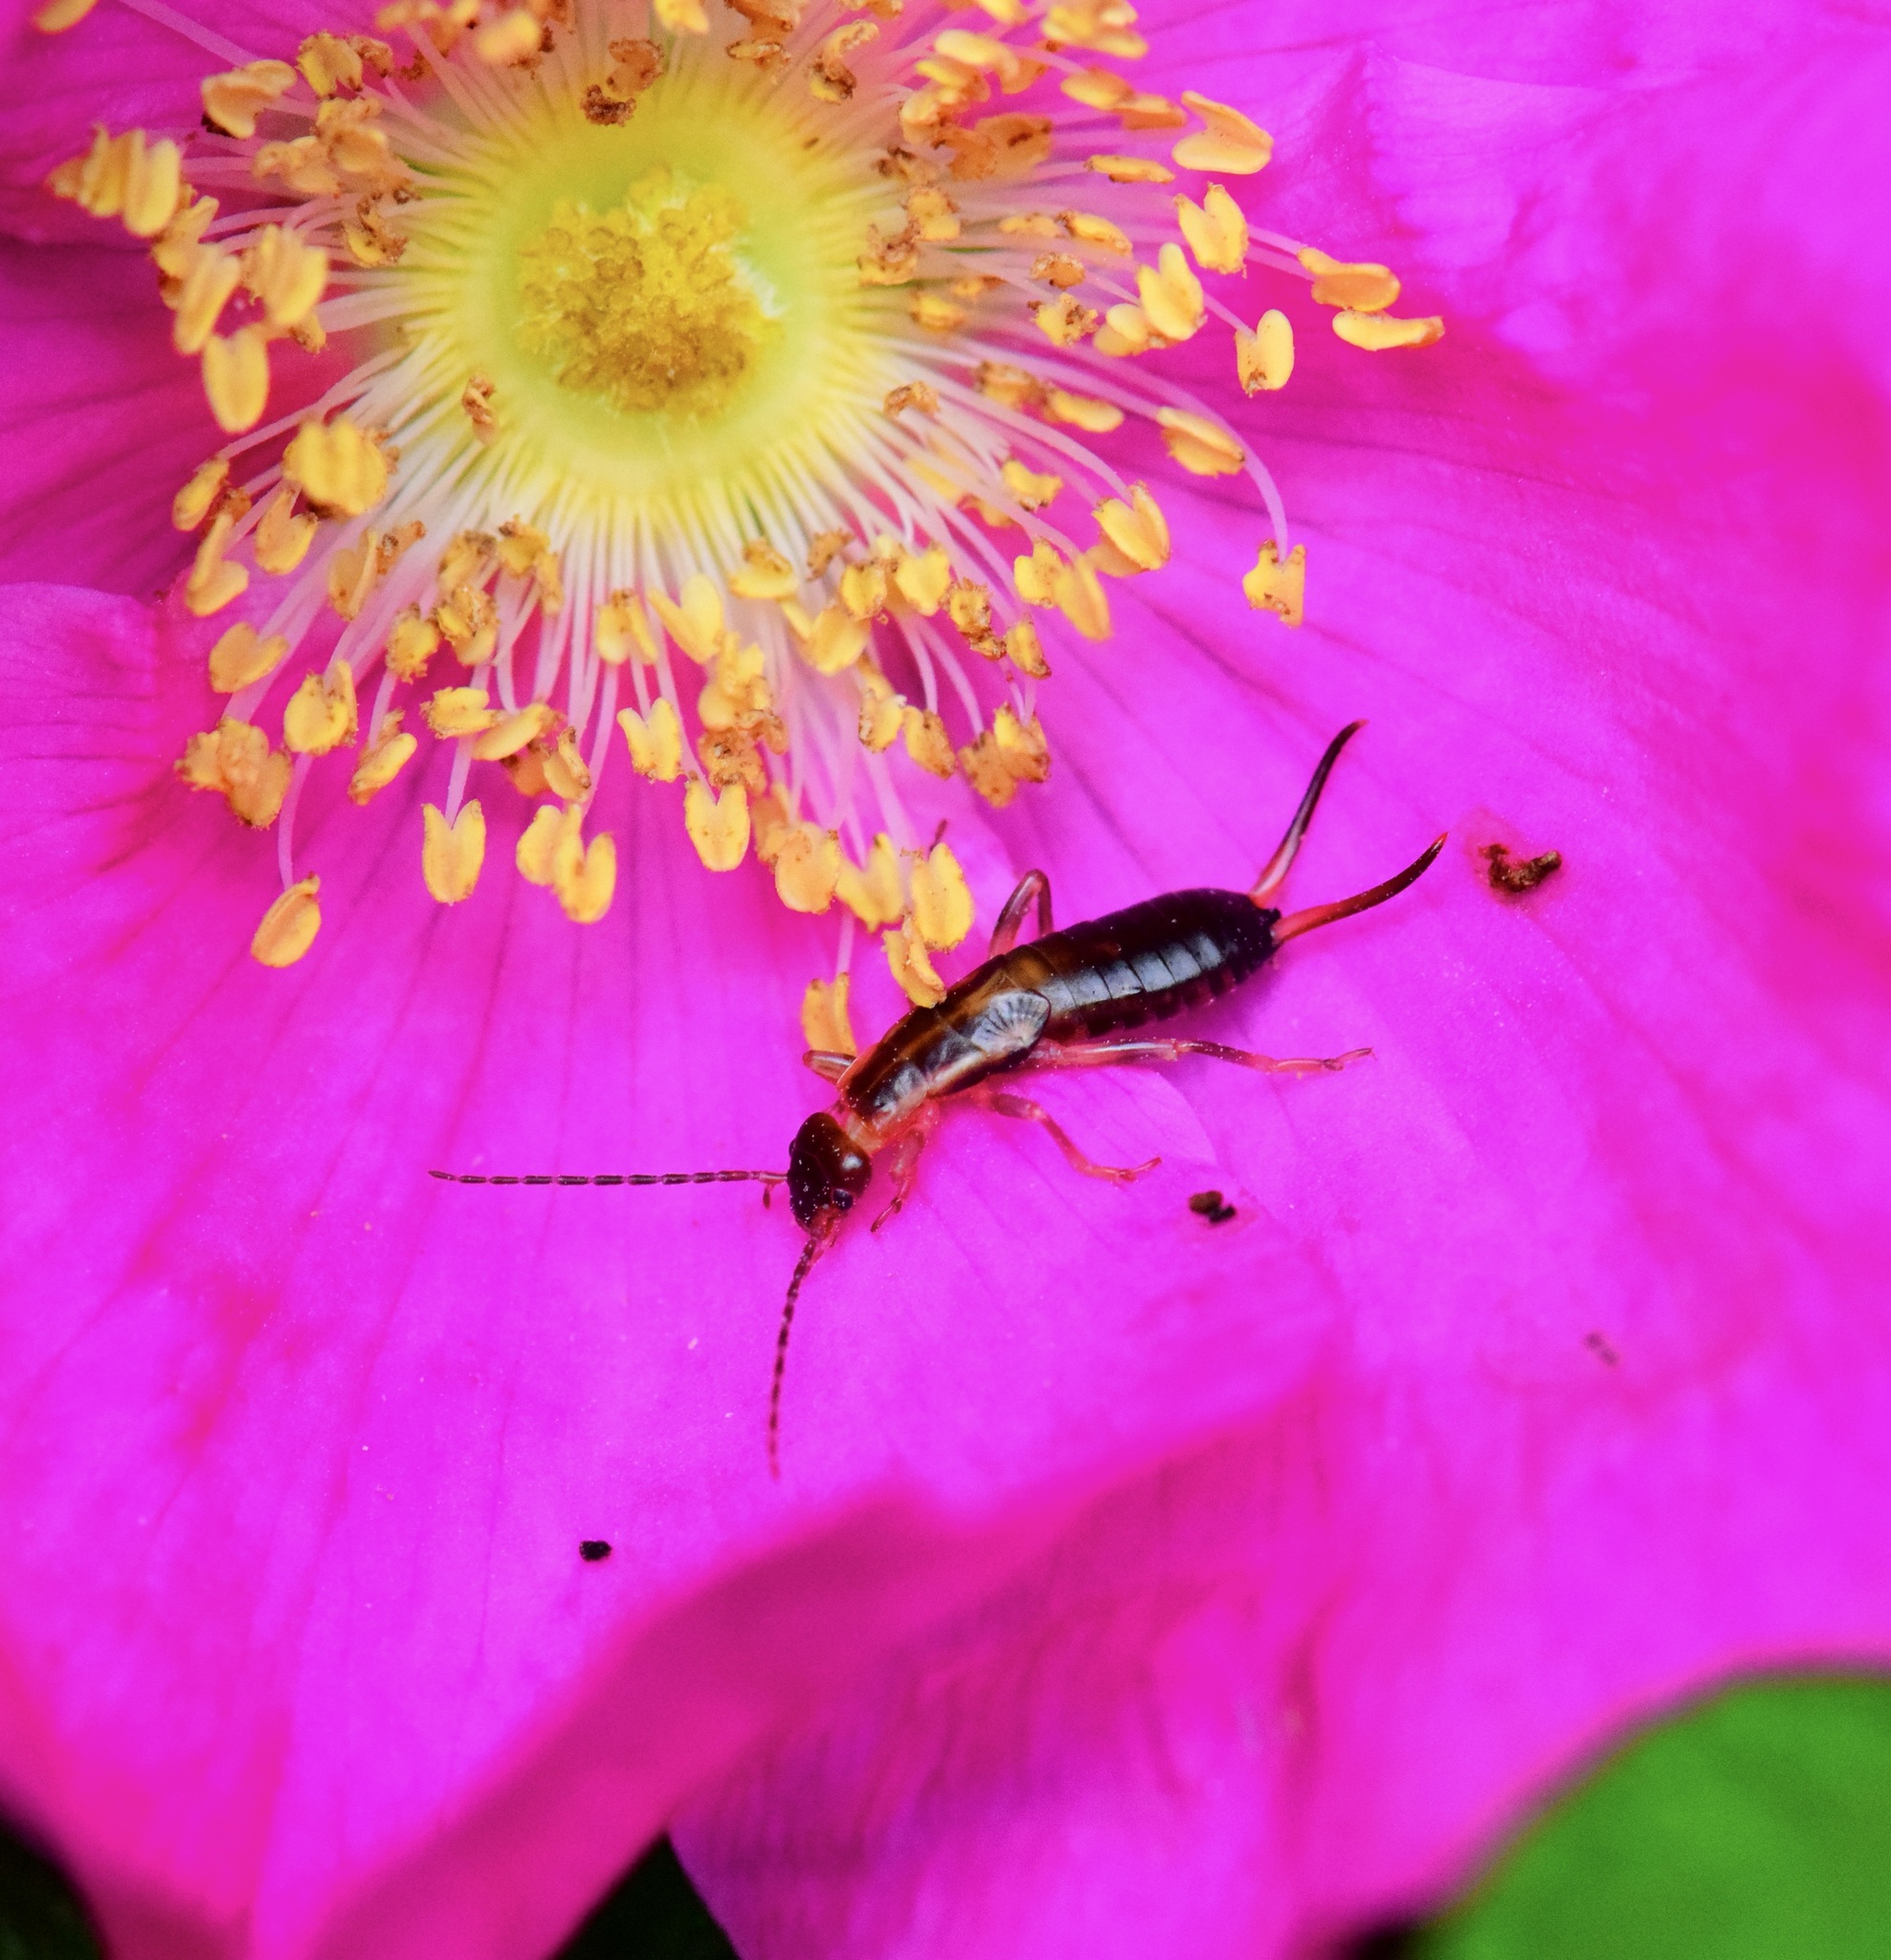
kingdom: Animalia
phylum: Arthropoda
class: Insecta
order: Dermaptera
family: Forficulidae
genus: Forficula
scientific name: Forficula
